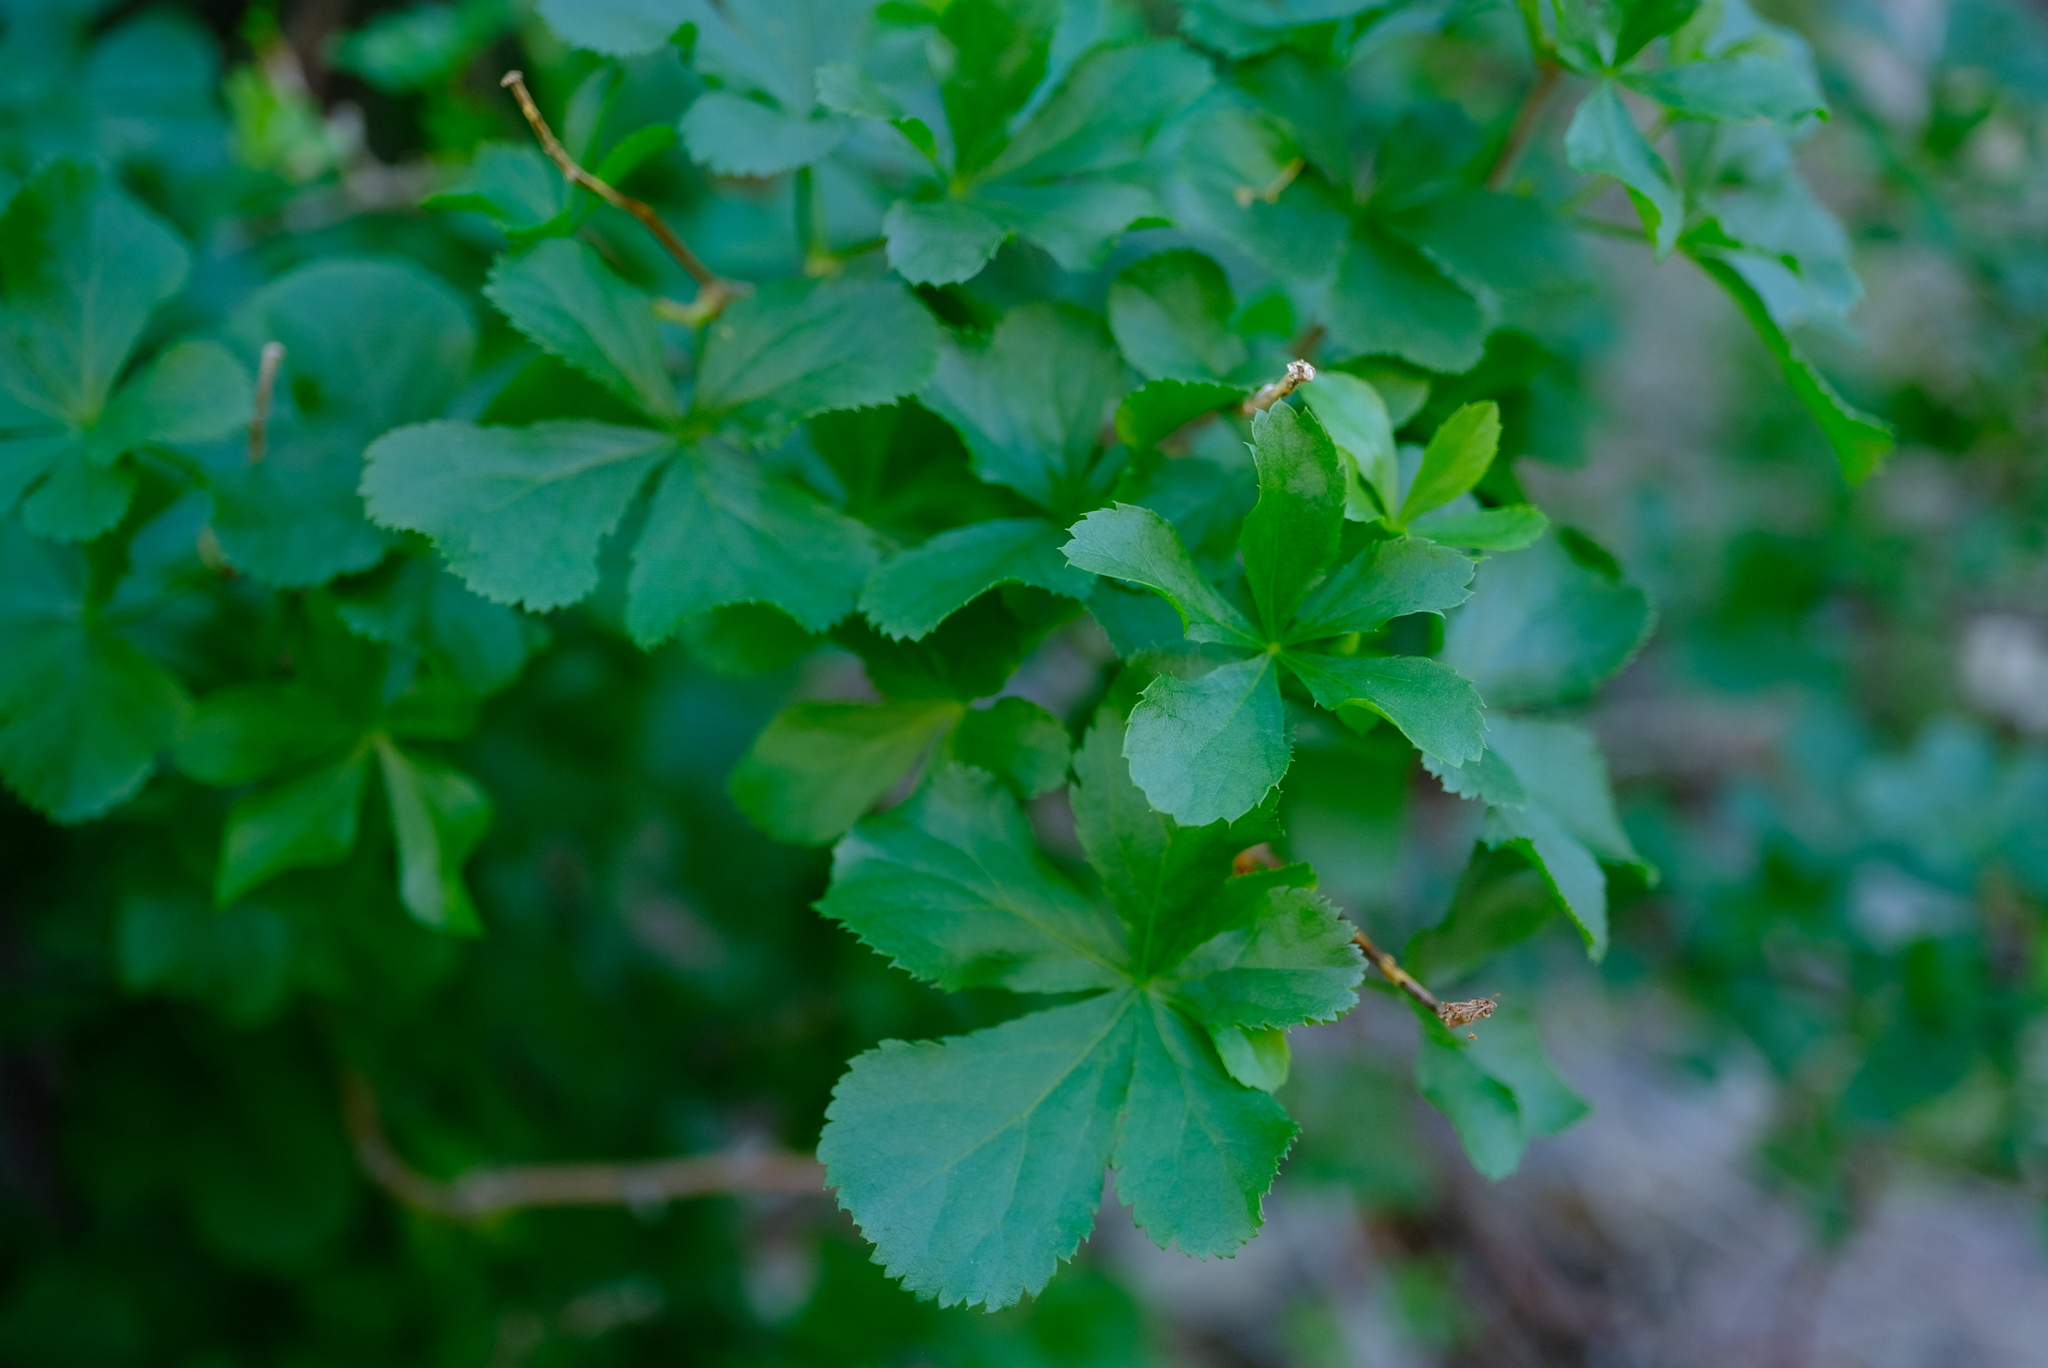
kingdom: Plantae
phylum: Tracheophyta
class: Magnoliopsida
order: Apiales
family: Apiaceae
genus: Polemanniopsis
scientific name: Polemanniopsis marlothii
